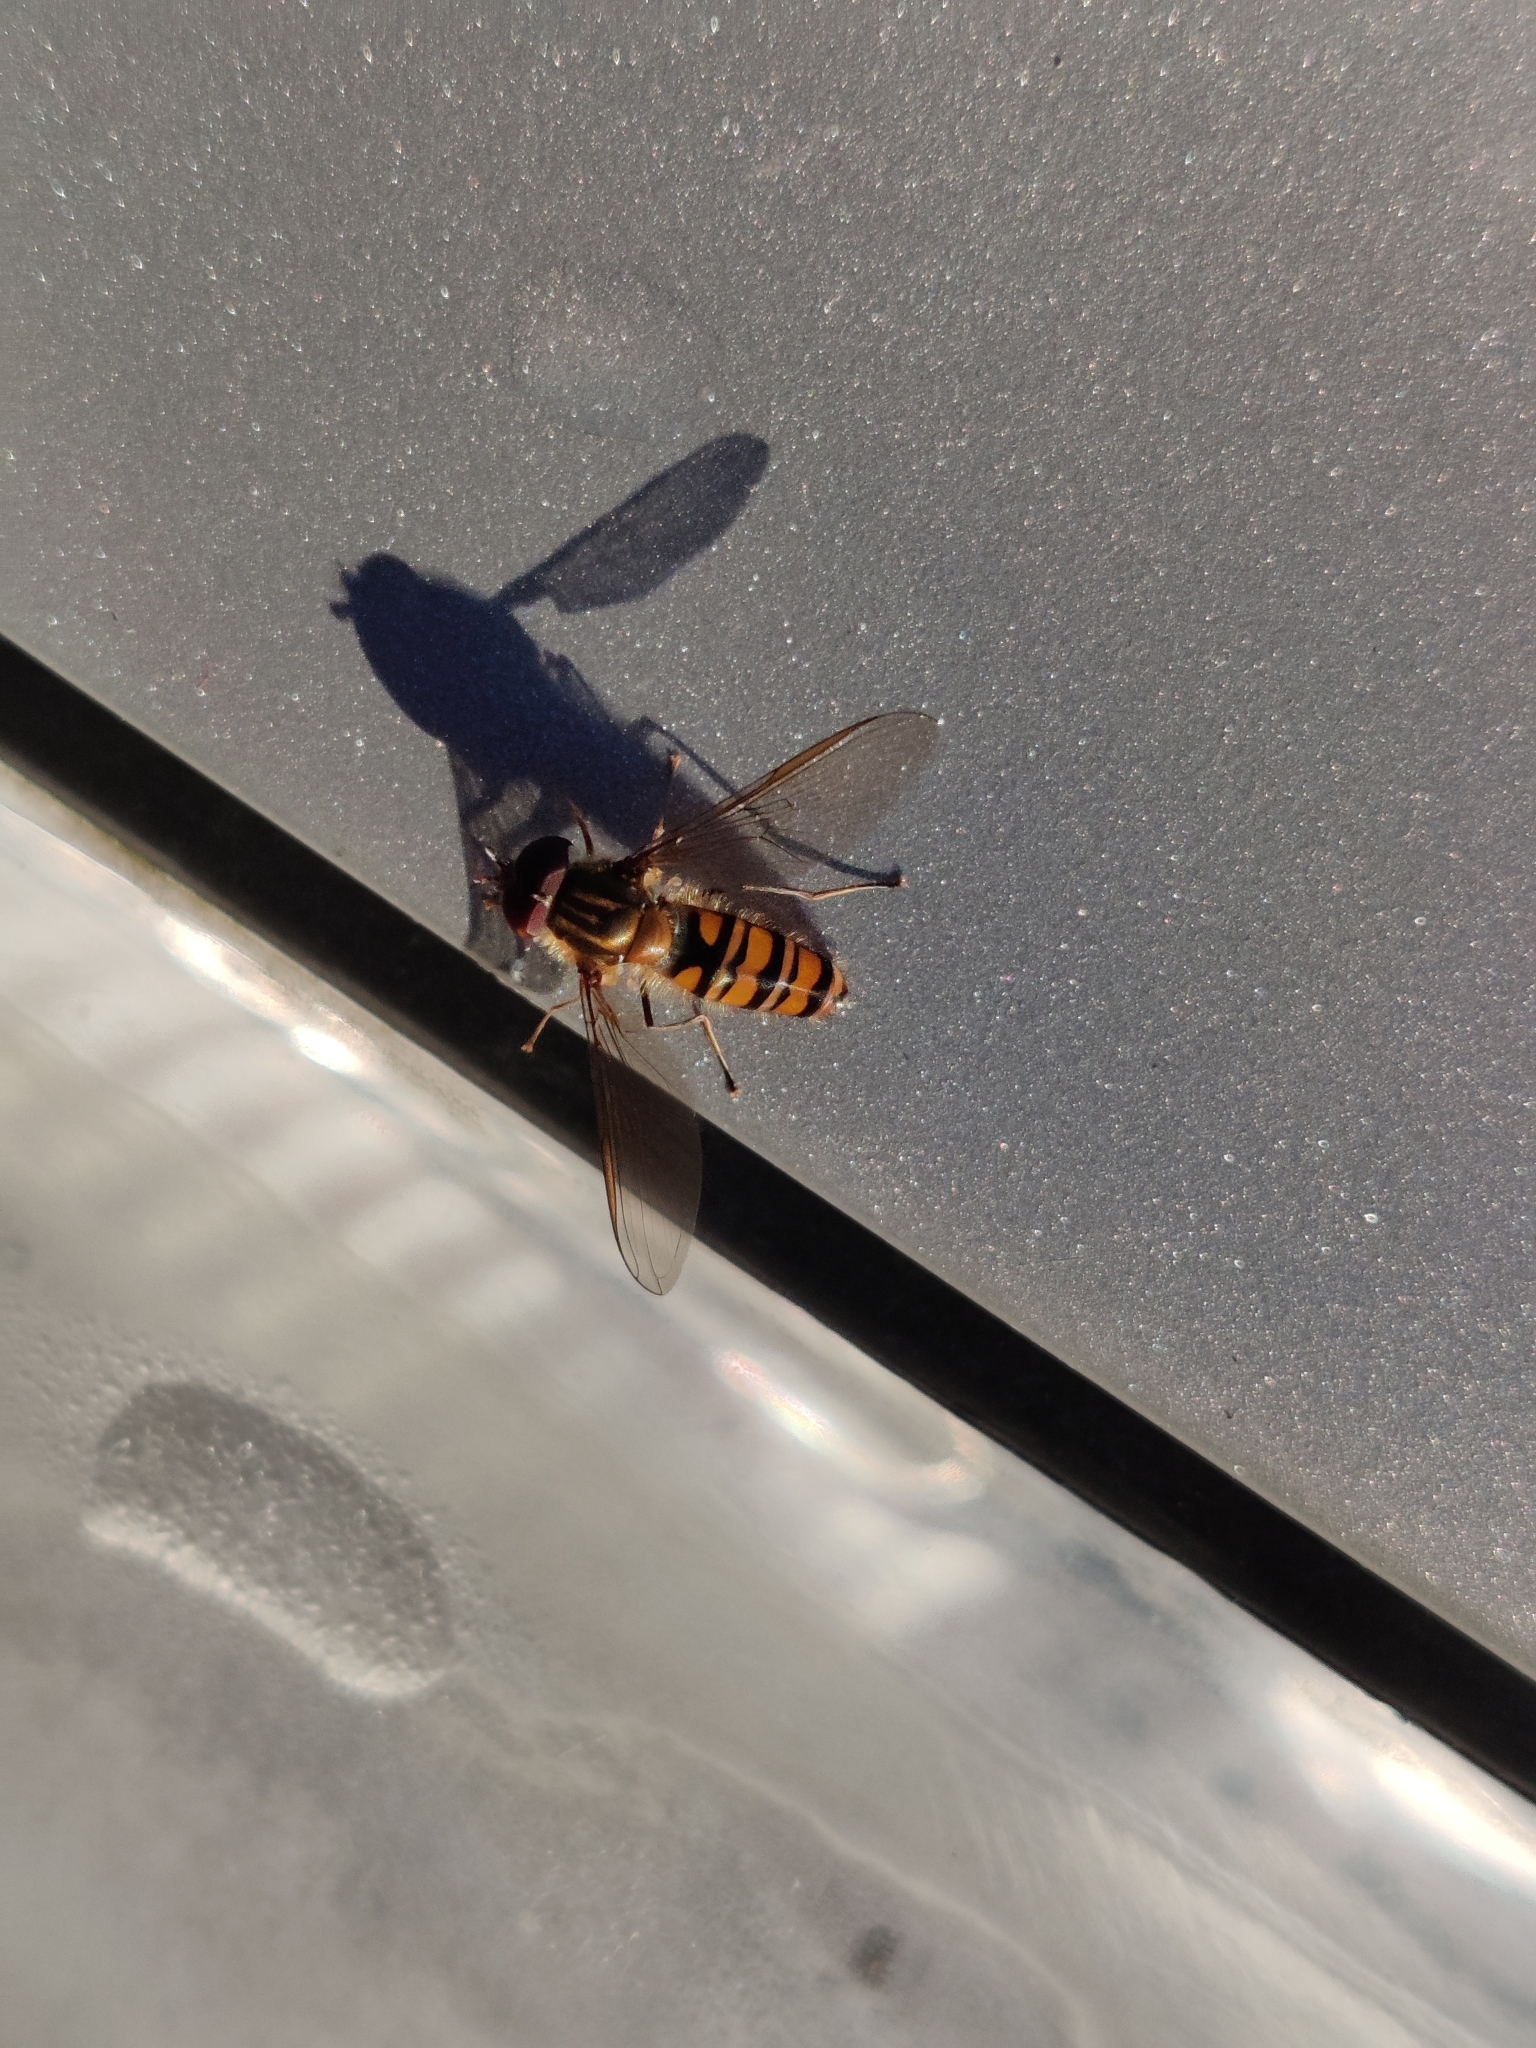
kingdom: Animalia
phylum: Arthropoda
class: Insecta
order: Diptera
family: Syrphidae
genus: Episyrphus
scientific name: Episyrphus balteatus
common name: Marmalade hoverfly
